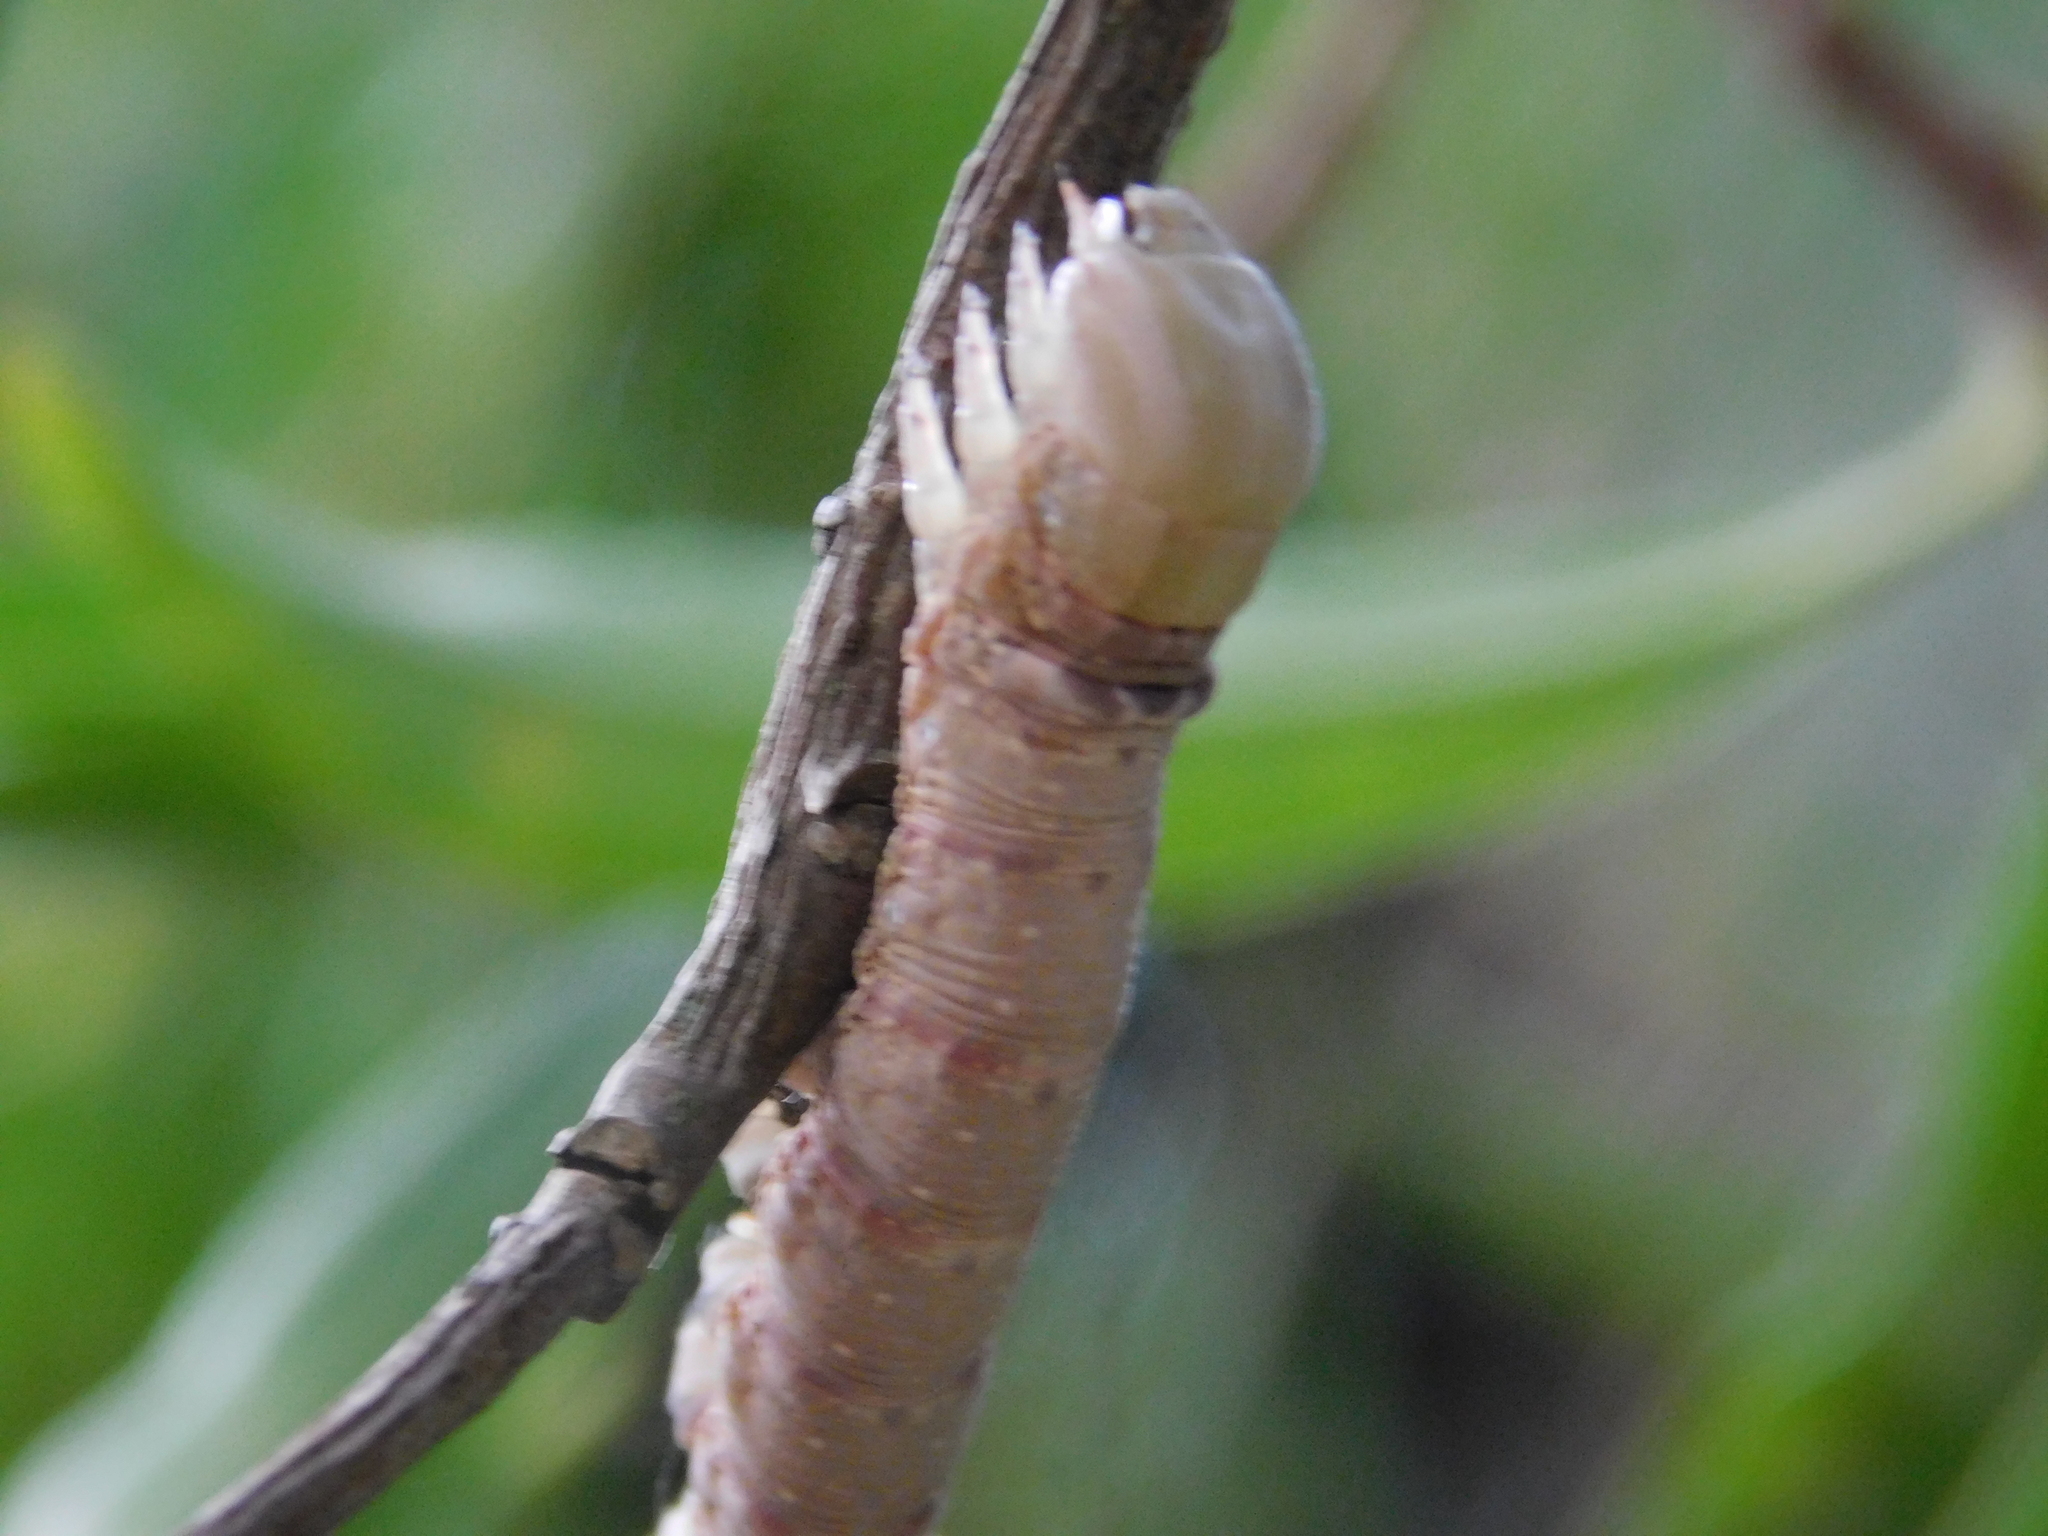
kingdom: Animalia
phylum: Arthropoda
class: Insecta
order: Lepidoptera
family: Sphingidae
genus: Erinnyis
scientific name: Erinnyis ello
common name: Ello sphinx
